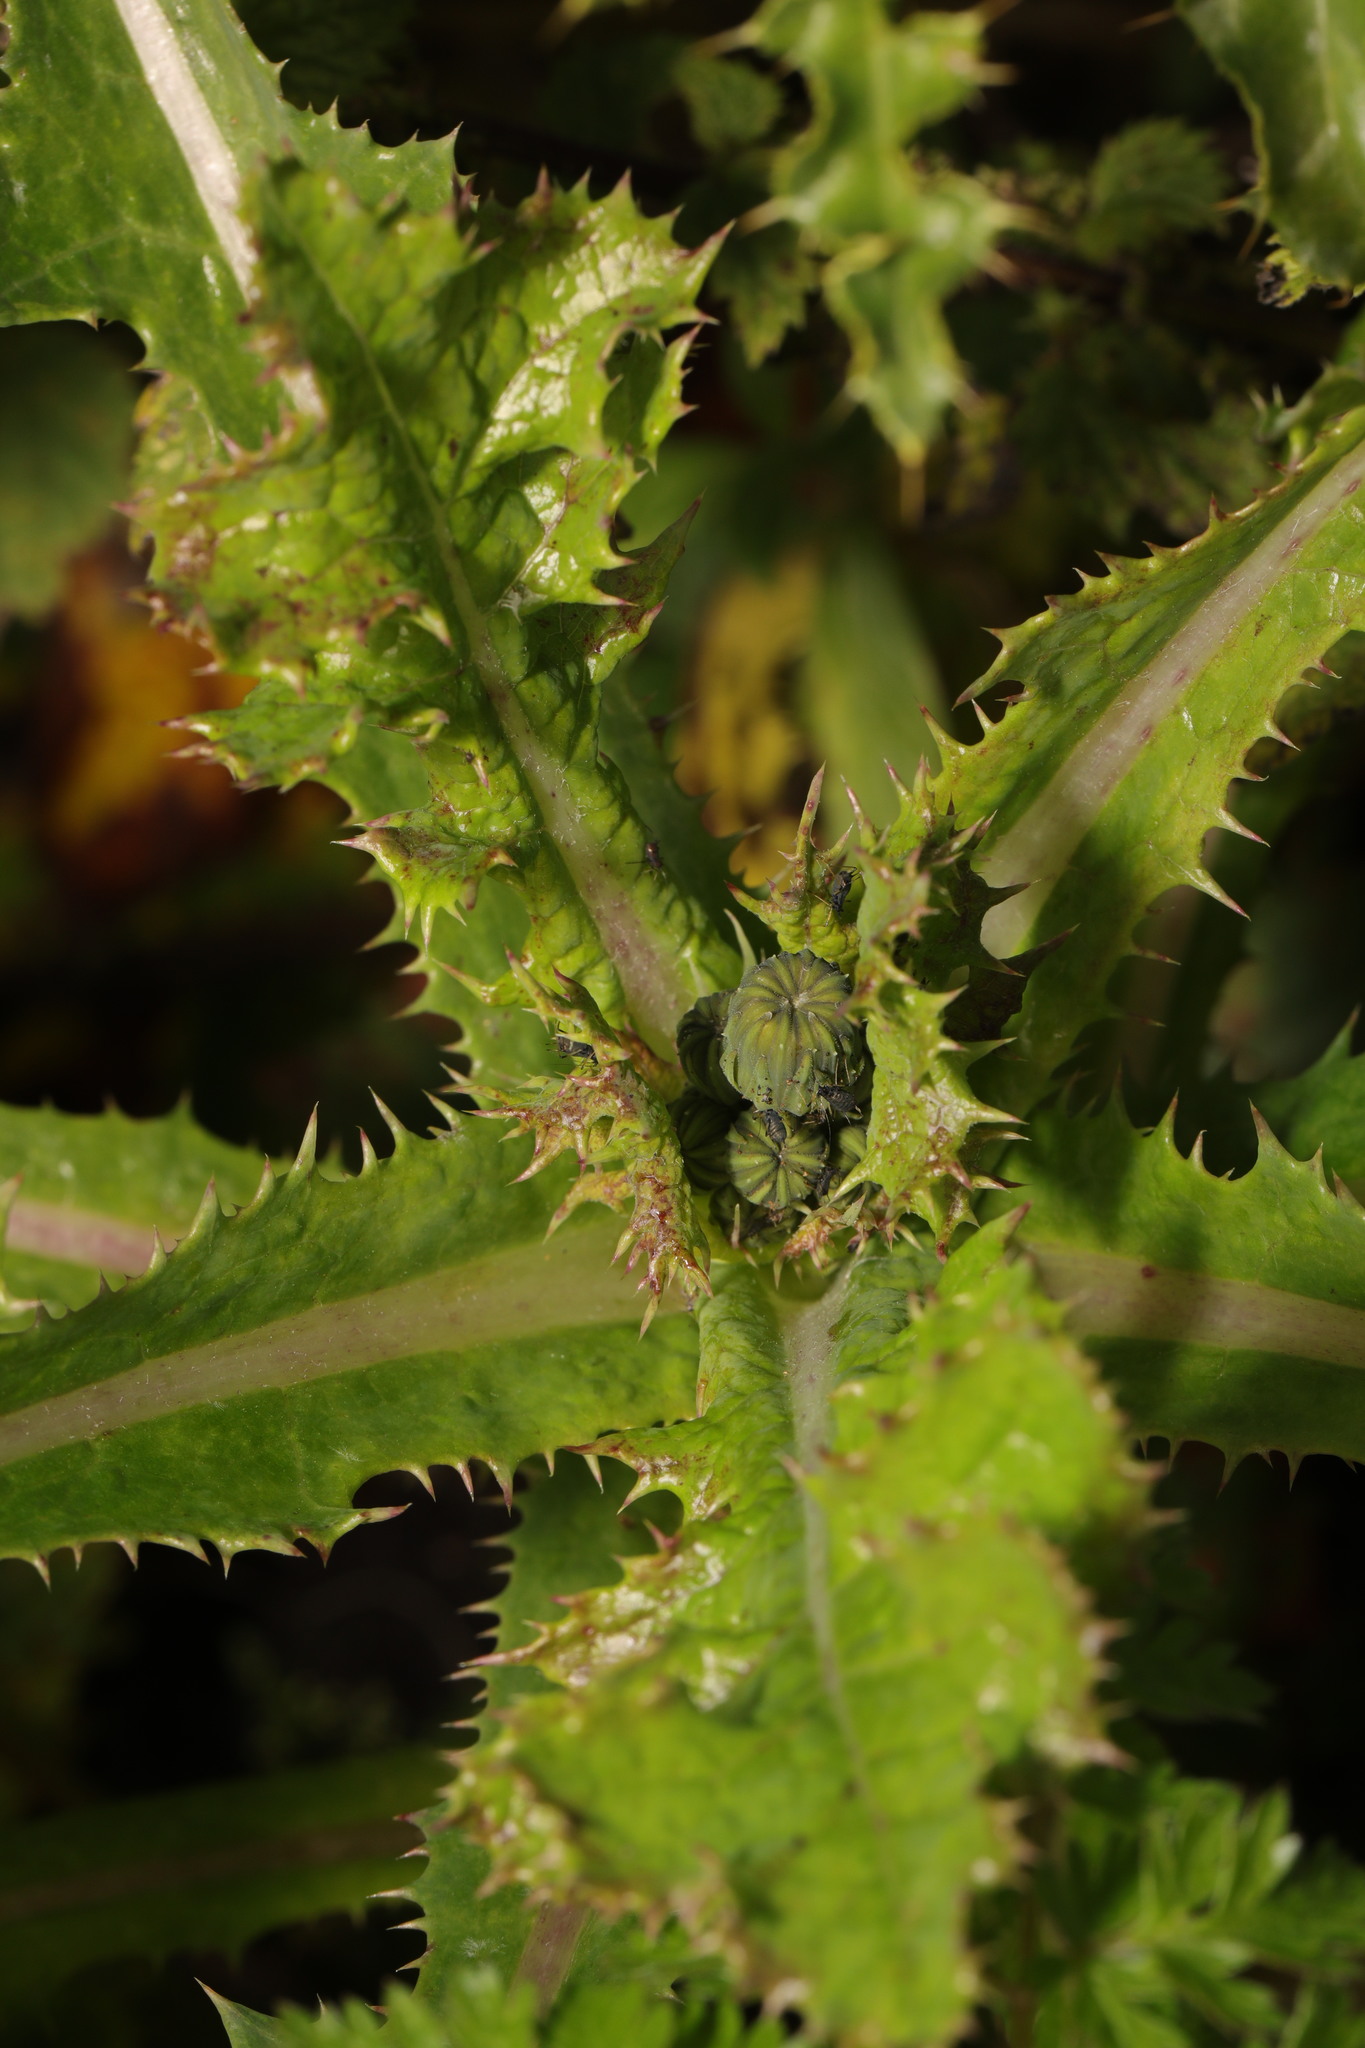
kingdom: Plantae
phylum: Tracheophyta
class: Magnoliopsida
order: Asterales
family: Asteraceae
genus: Sonchus
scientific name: Sonchus asper
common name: Prickly sow-thistle
